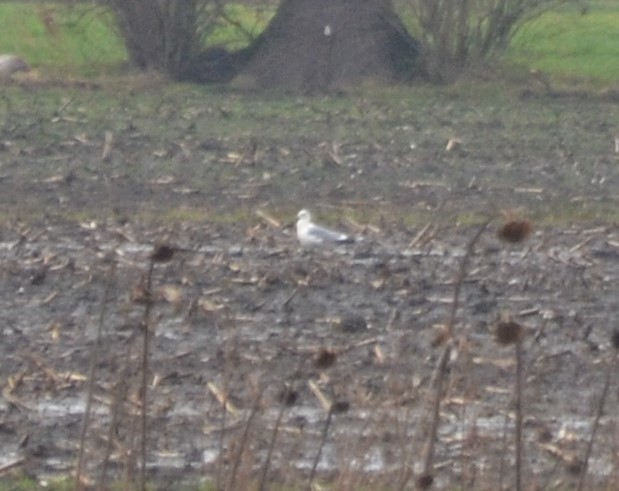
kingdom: Animalia
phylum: Chordata
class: Aves
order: Charadriiformes
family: Laridae
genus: Larus
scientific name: Larus canus
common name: Mew gull
